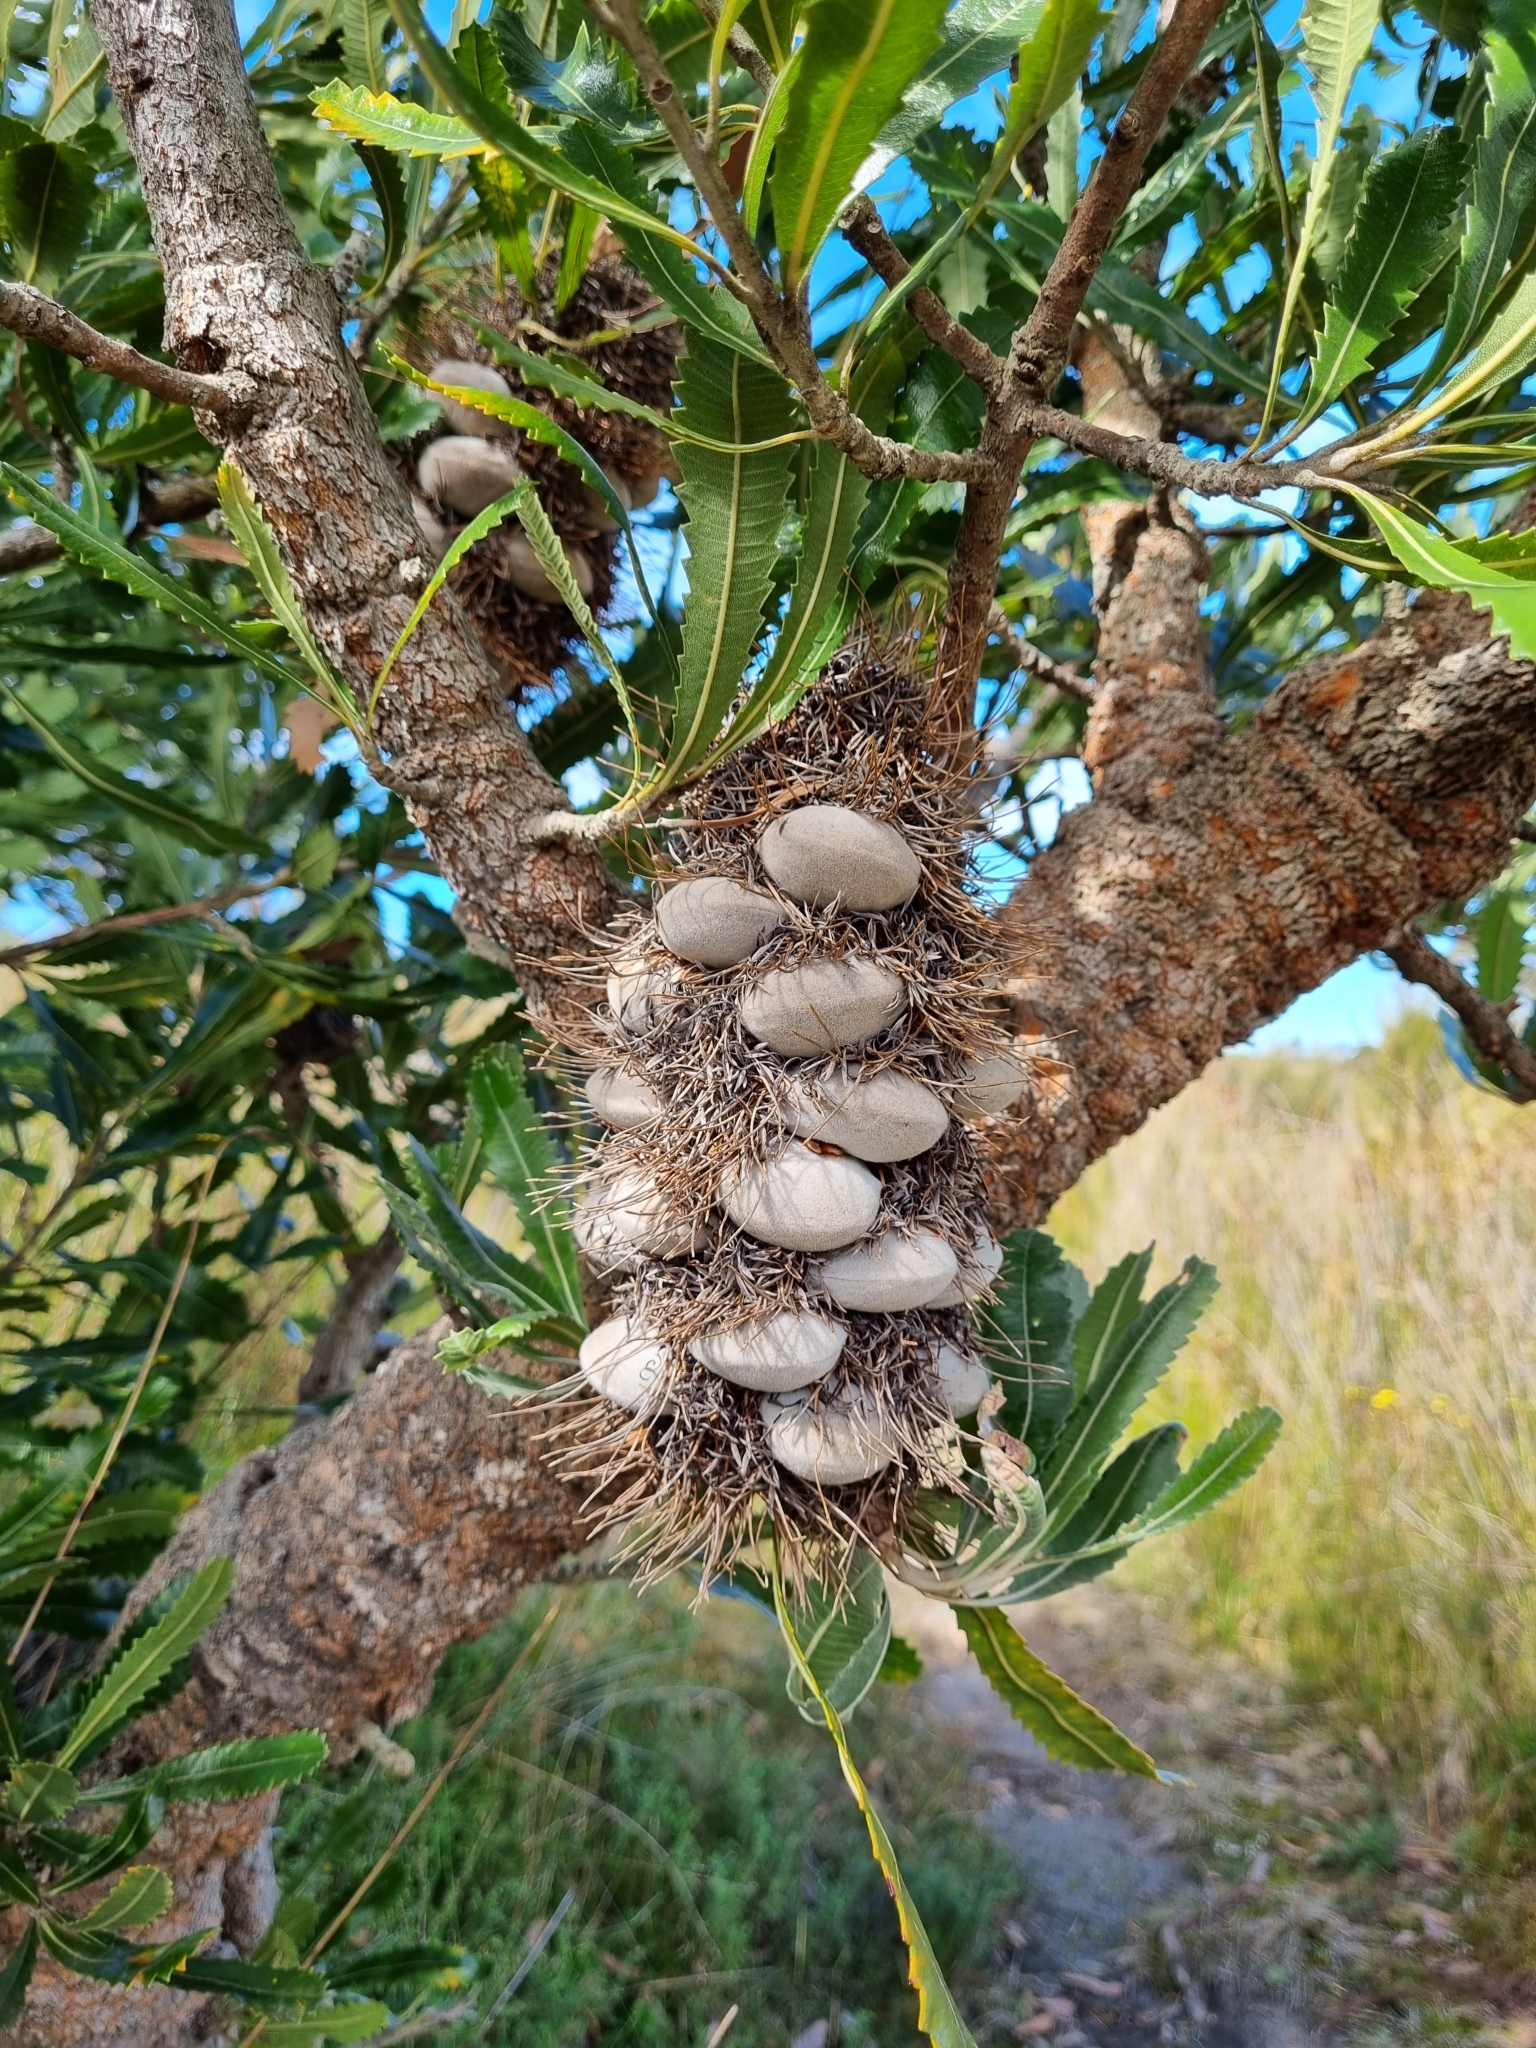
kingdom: Plantae
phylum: Tracheophyta
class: Magnoliopsida
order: Proteales
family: Proteaceae
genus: Banksia
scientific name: Banksia serrata
